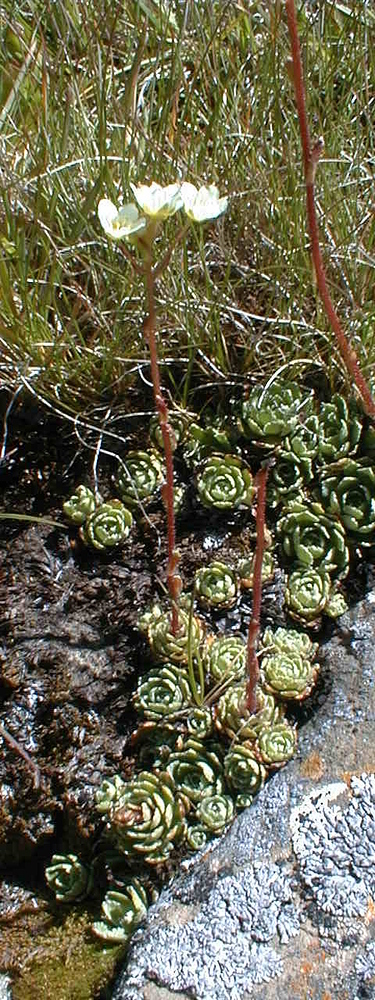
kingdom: Plantae
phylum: Tracheophyta
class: Magnoliopsida
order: Saxifragales
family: Saxifragaceae
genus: Saxifraga
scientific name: Saxifraga paniculata
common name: Livelong saxifrage
